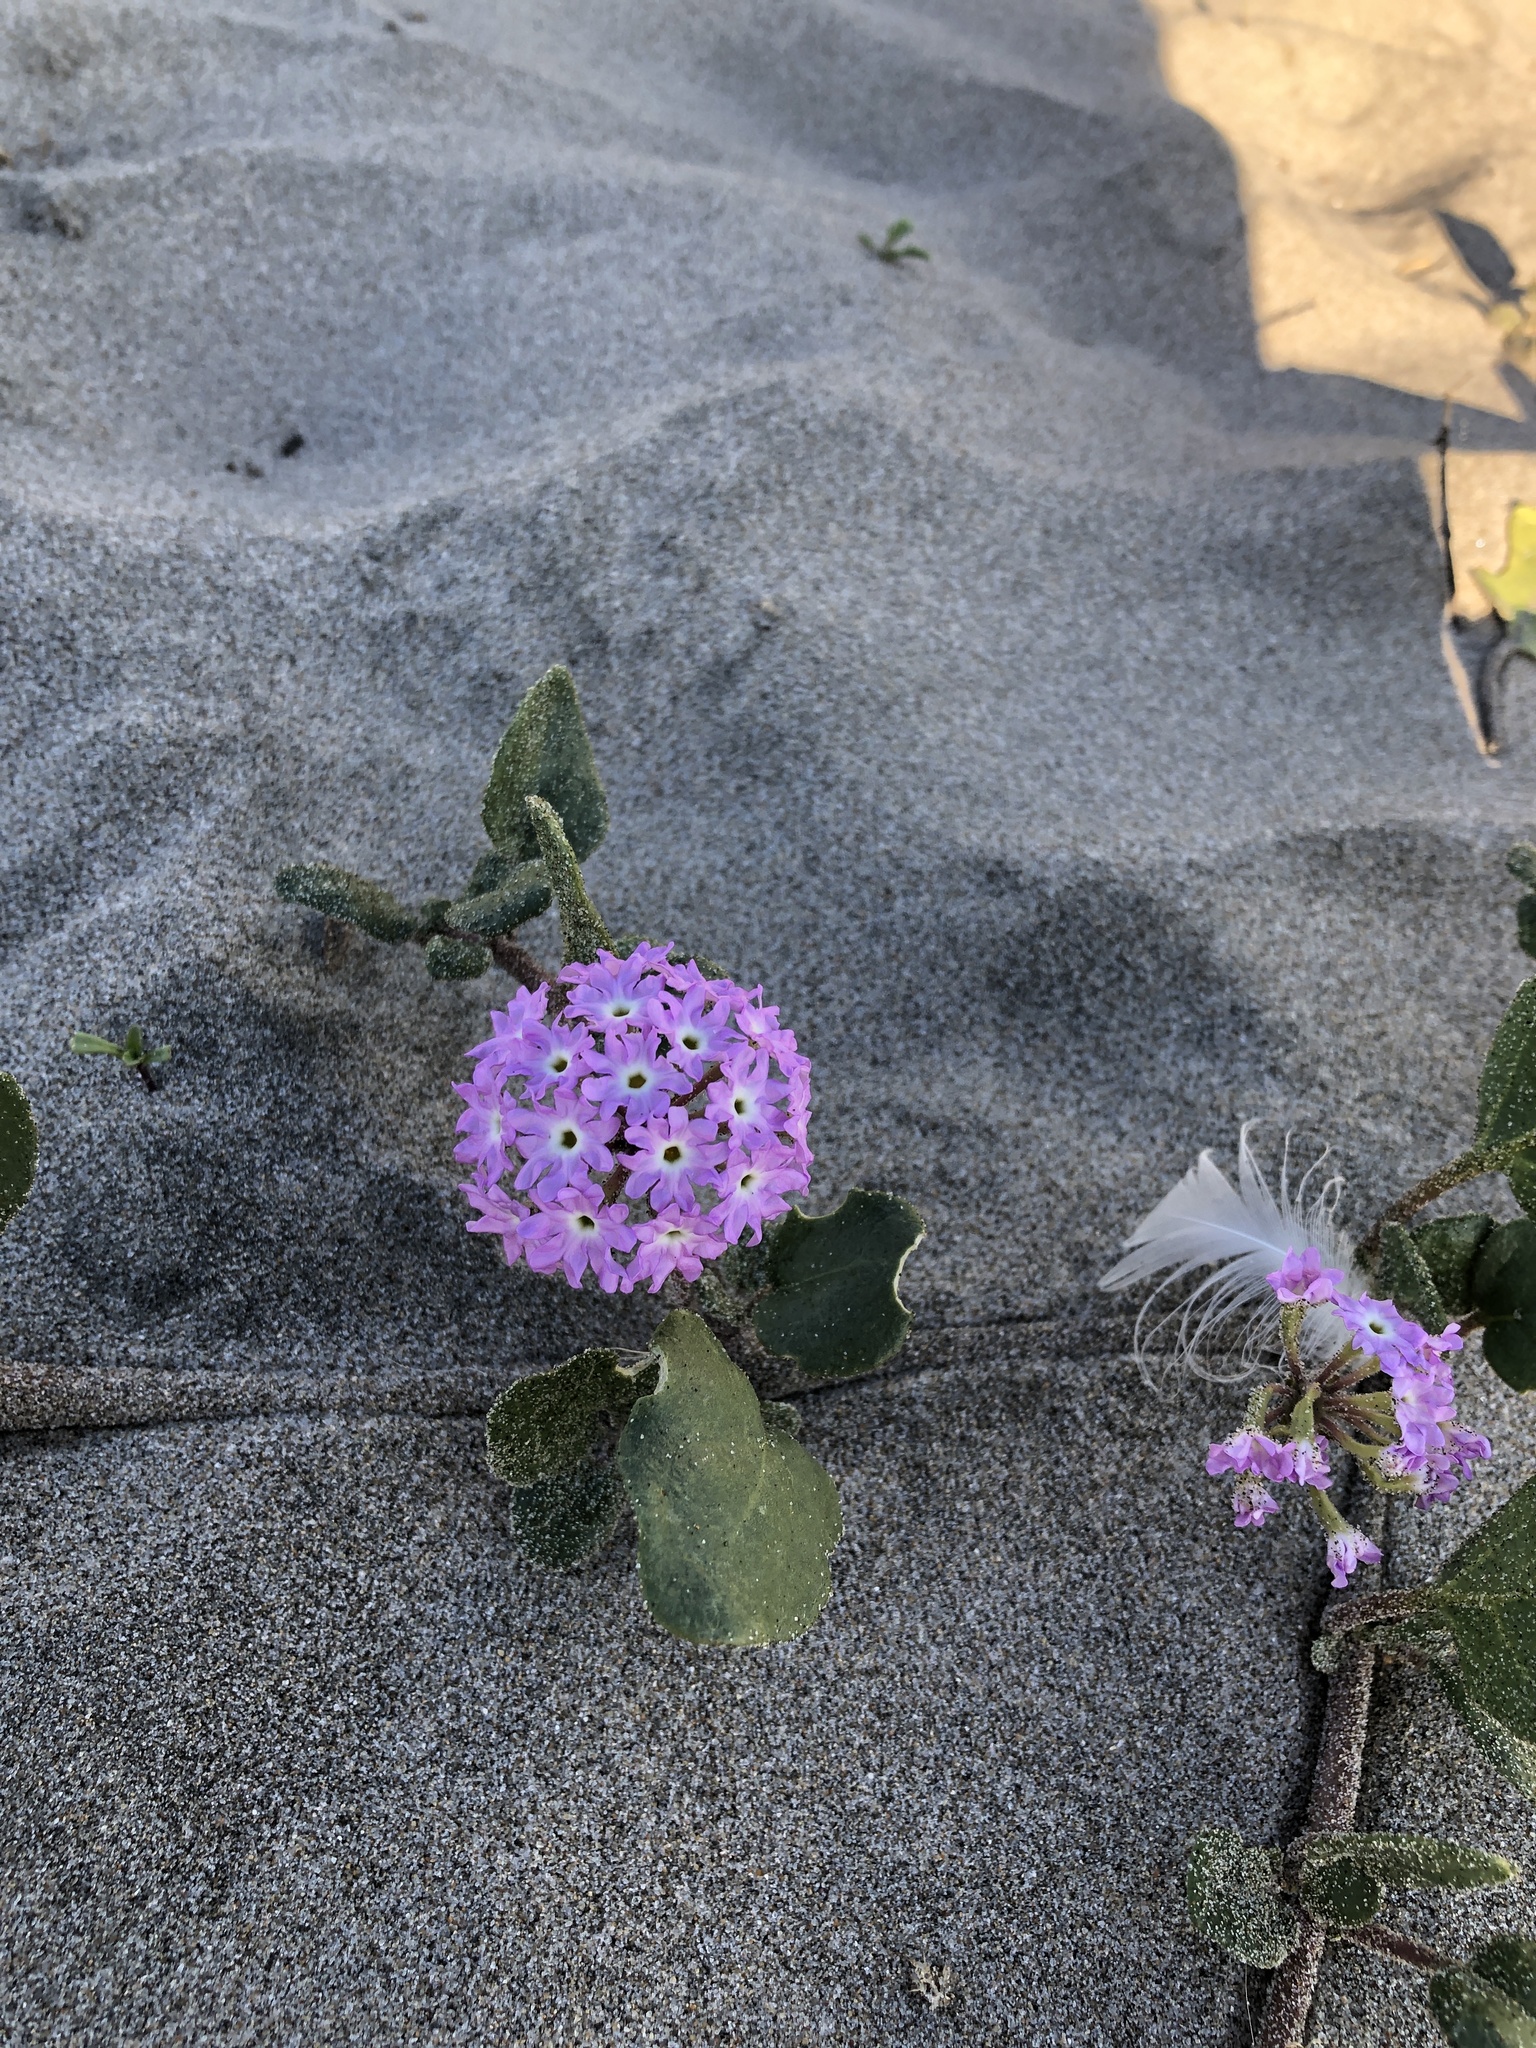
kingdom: Plantae
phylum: Tracheophyta
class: Magnoliopsida
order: Caryophyllales
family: Nyctaginaceae
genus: Abronia
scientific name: Abronia
